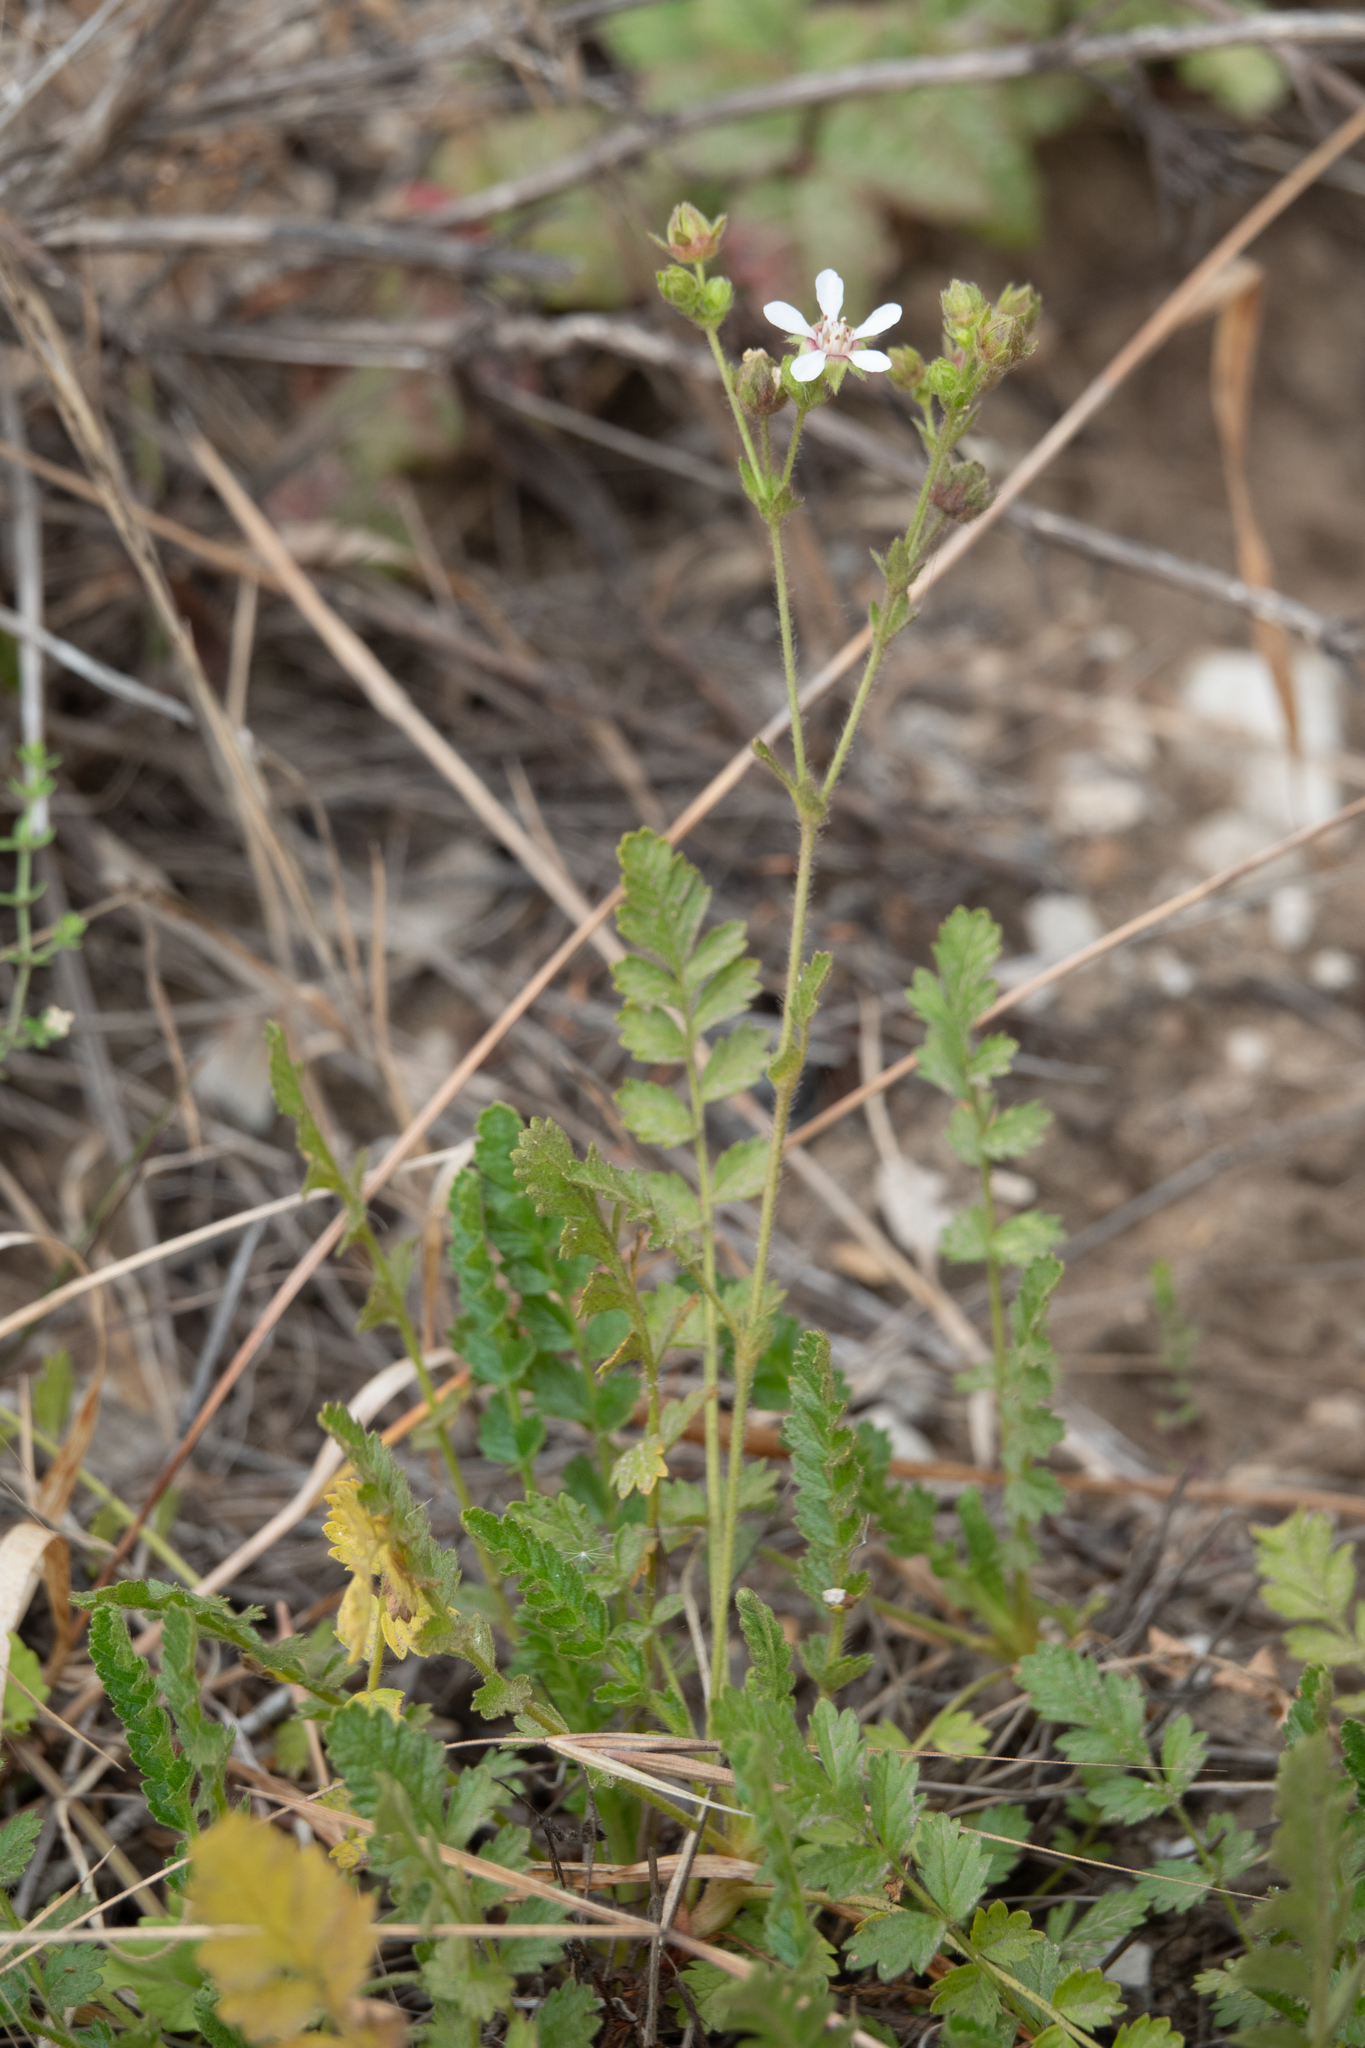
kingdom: Plantae
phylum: Tracheophyta
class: Magnoliopsida
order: Rosales
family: Rosaceae
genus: Potentilla
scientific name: Potentilla
